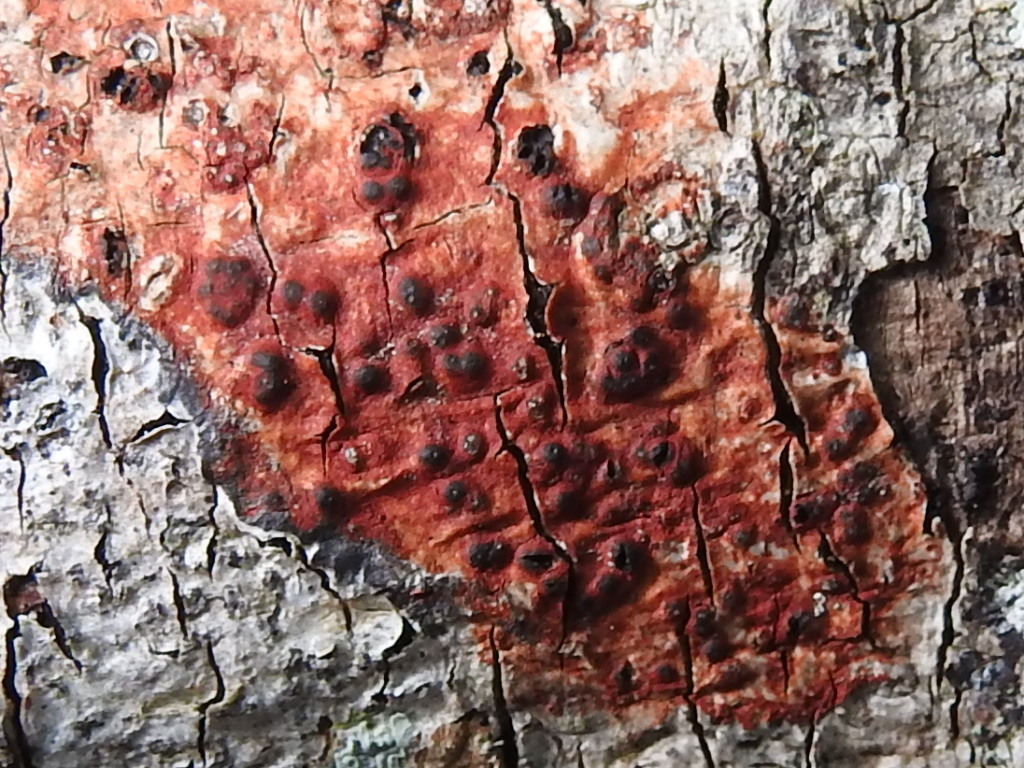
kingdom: Fungi
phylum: Ascomycota
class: Eurotiomycetes
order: Pyrenulales
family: Pyrenulaceae
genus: Pyrenula
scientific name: Pyrenula
